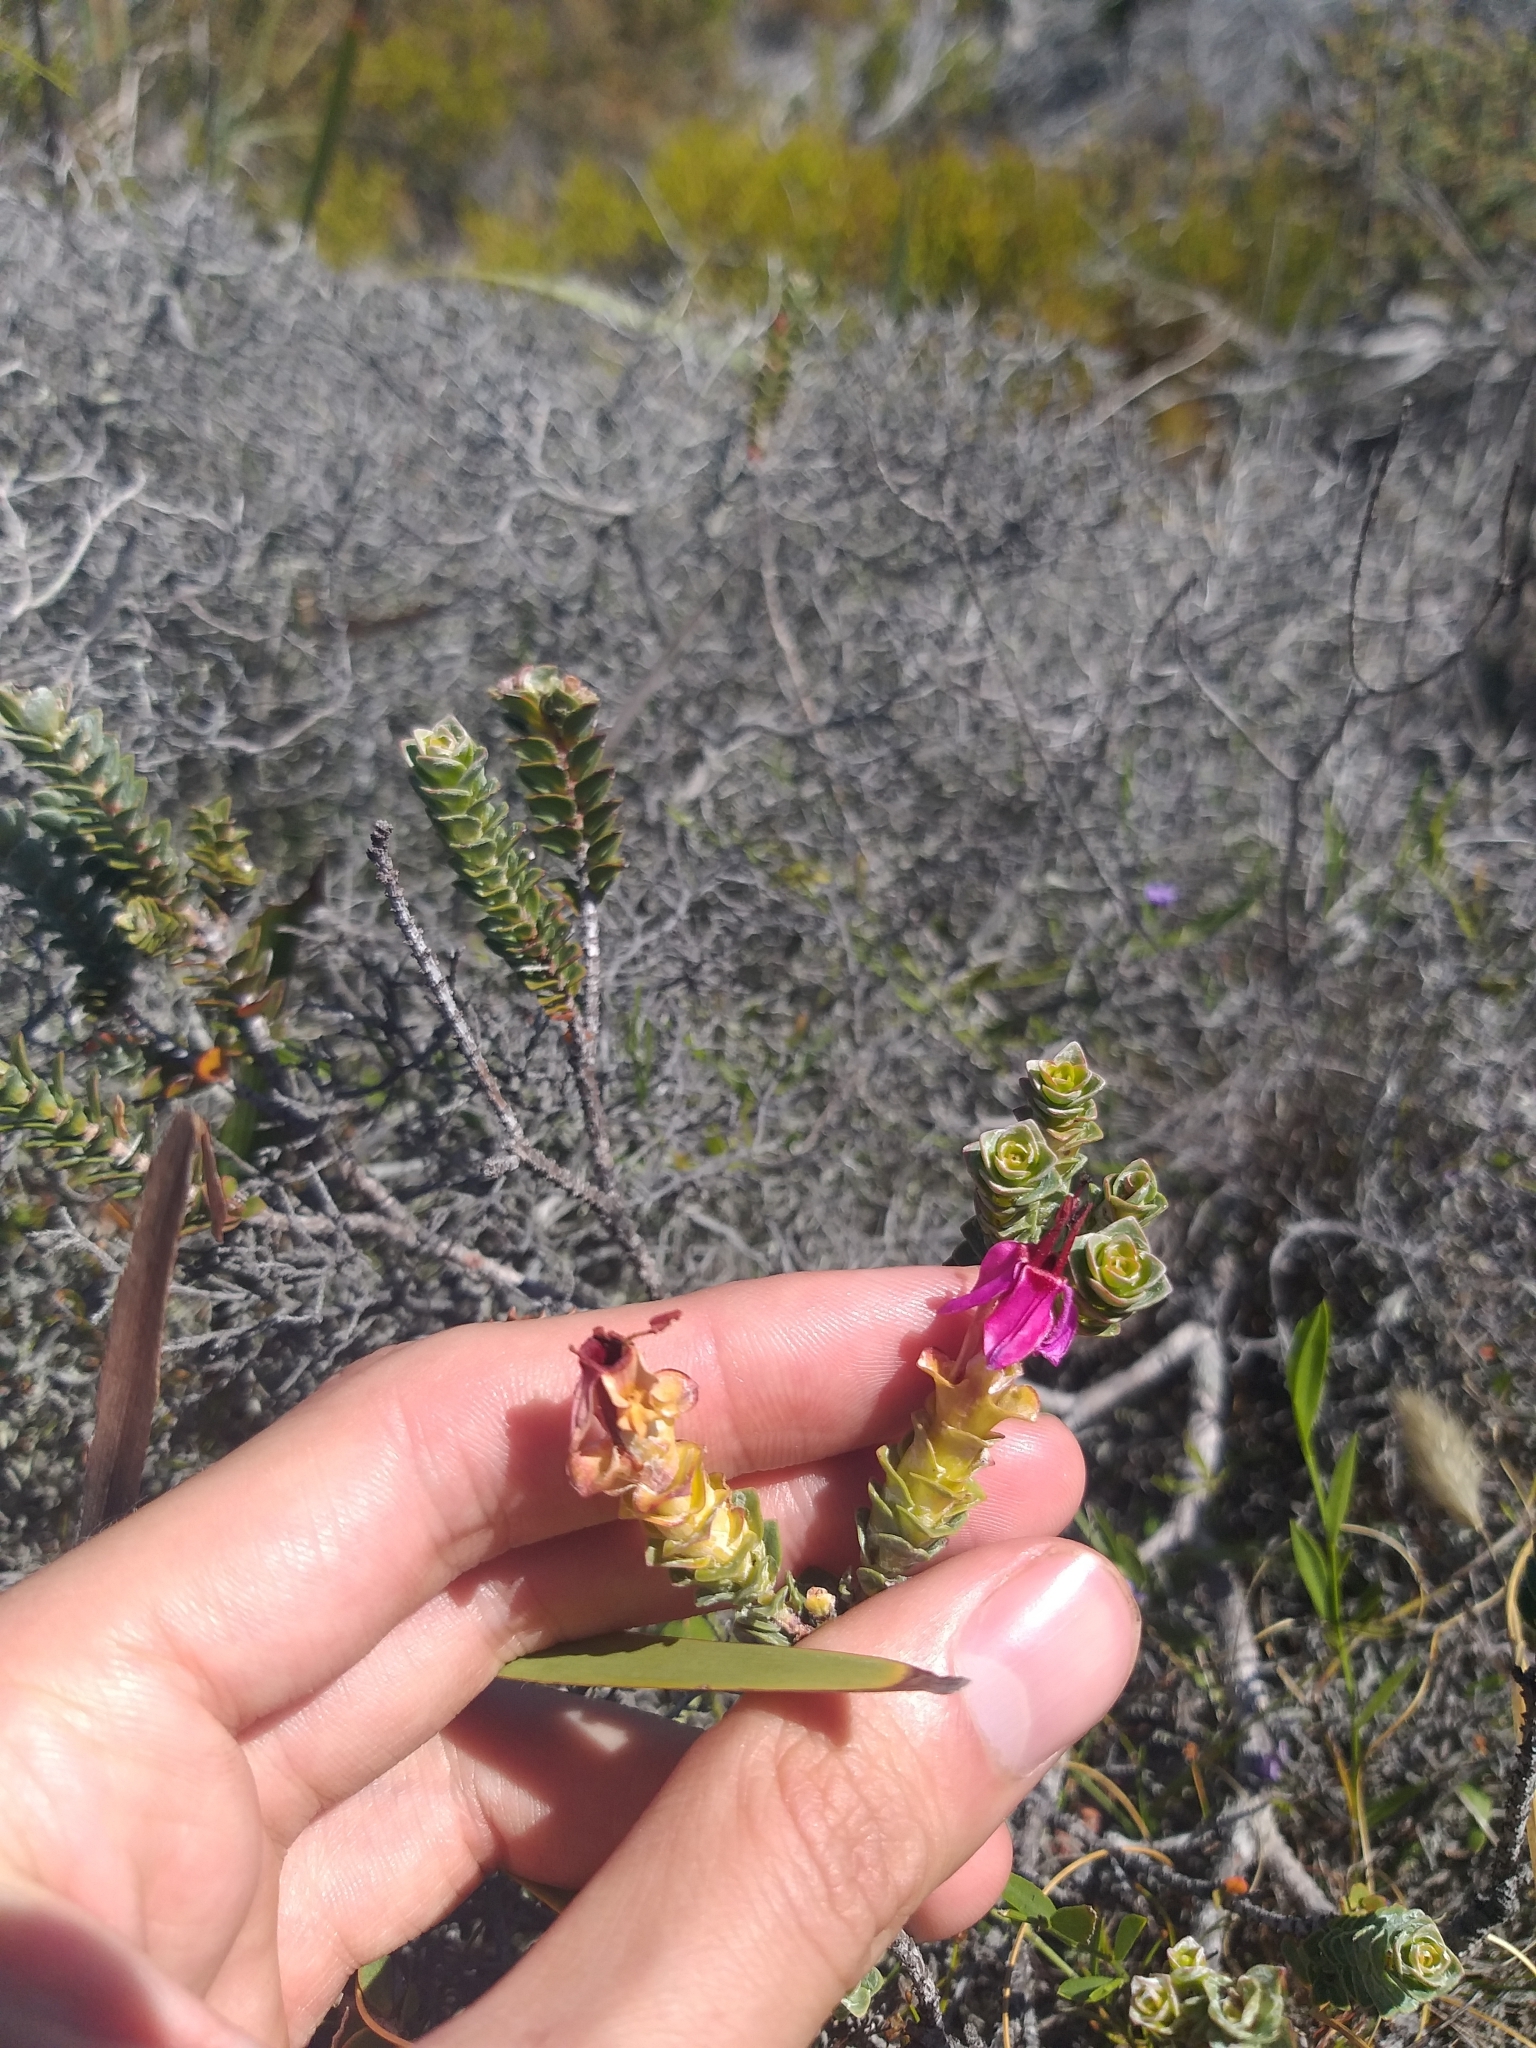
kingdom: Plantae
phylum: Tracheophyta
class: Magnoliopsida
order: Myrtales
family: Penaeaceae
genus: Saltera
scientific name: Saltera sarcocolla
